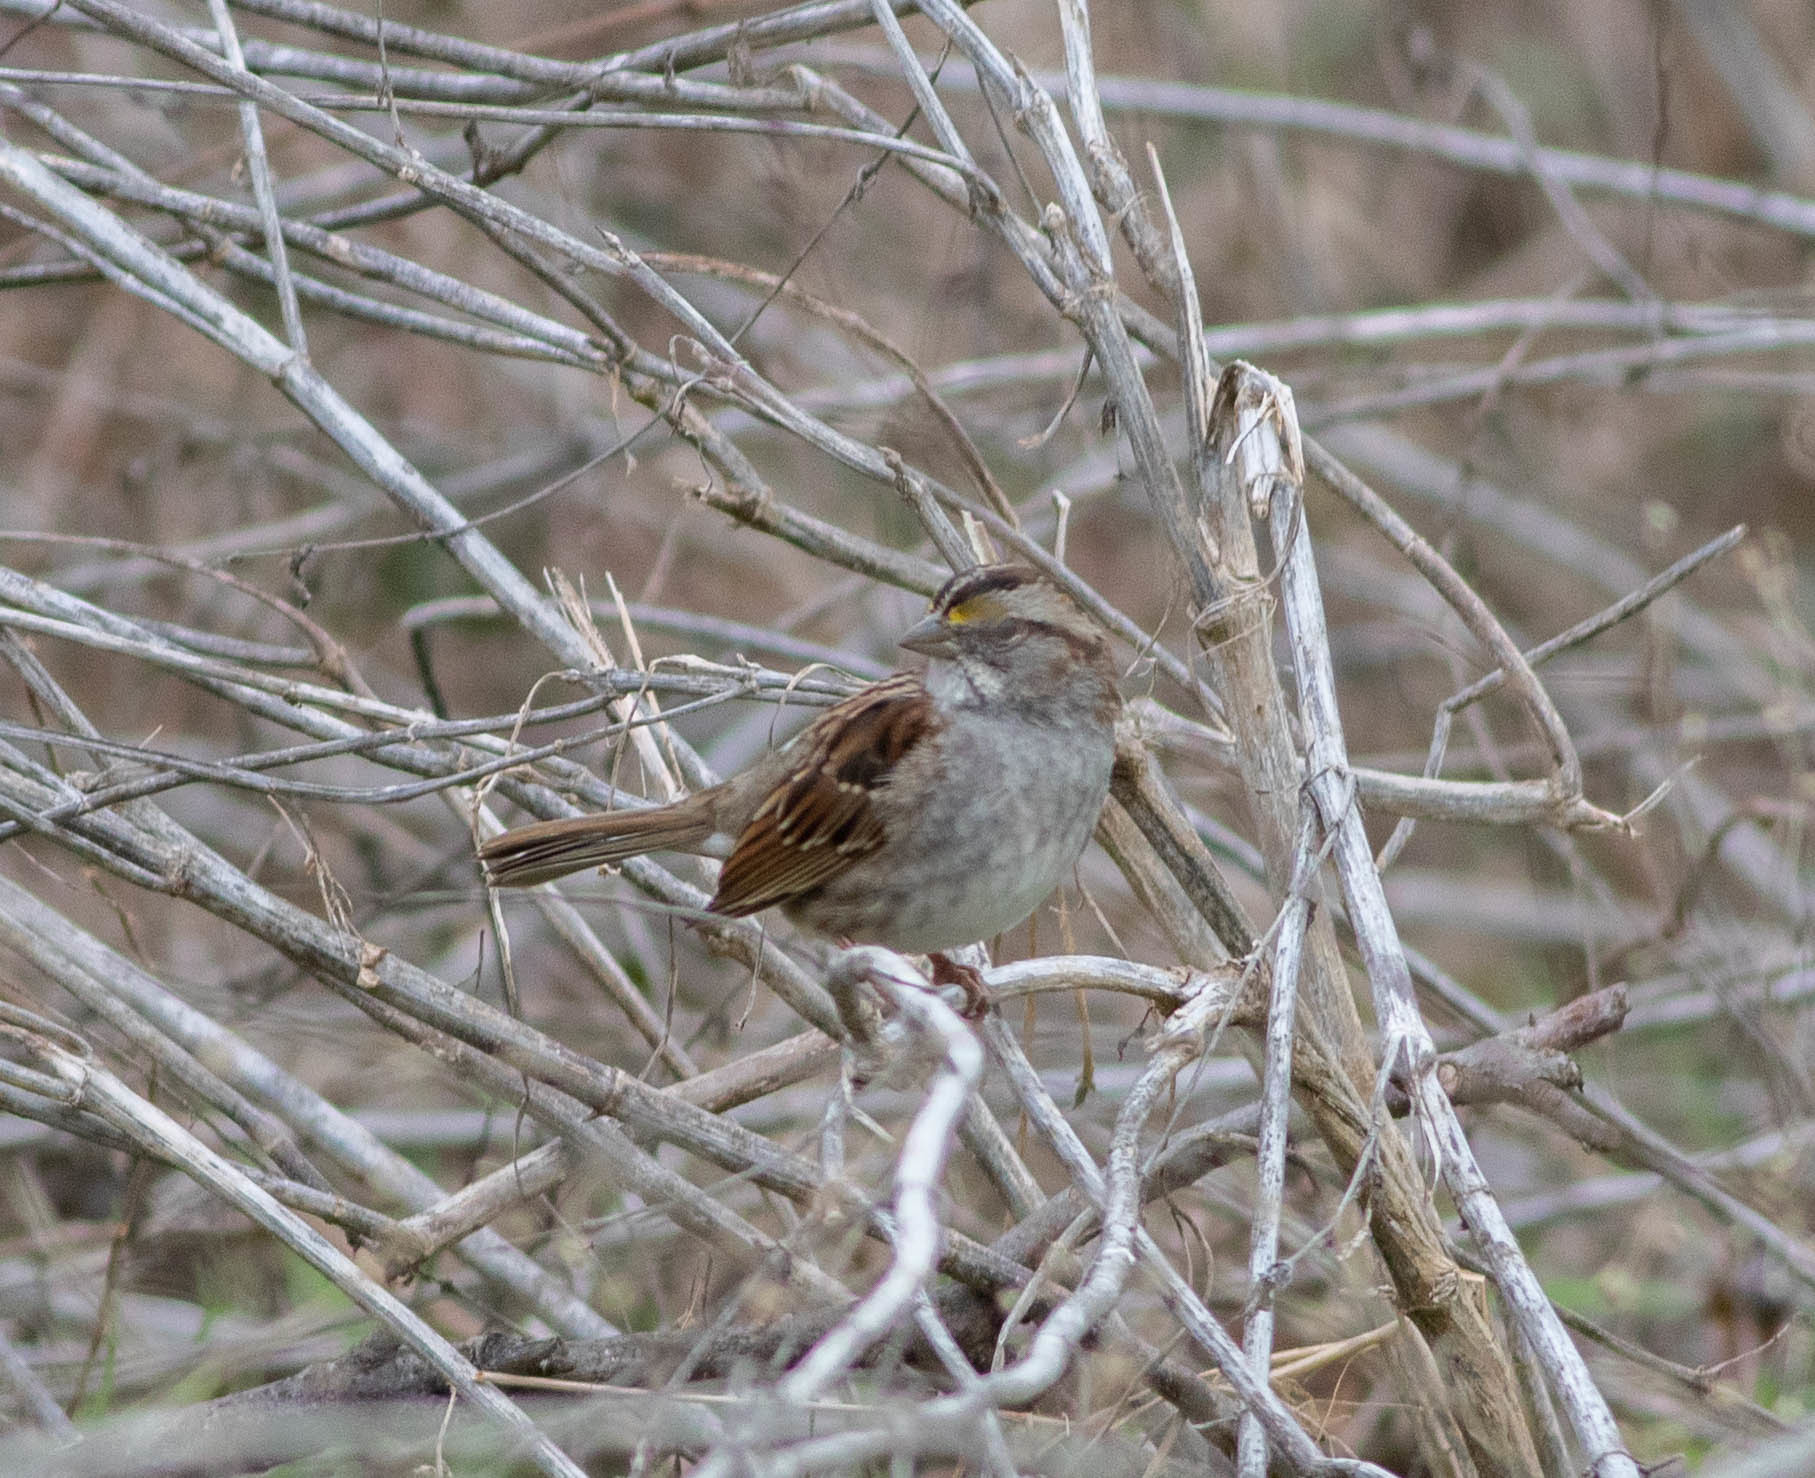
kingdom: Animalia
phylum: Chordata
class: Aves
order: Passeriformes
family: Passerellidae
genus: Zonotrichia
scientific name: Zonotrichia albicollis
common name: White-throated sparrow
